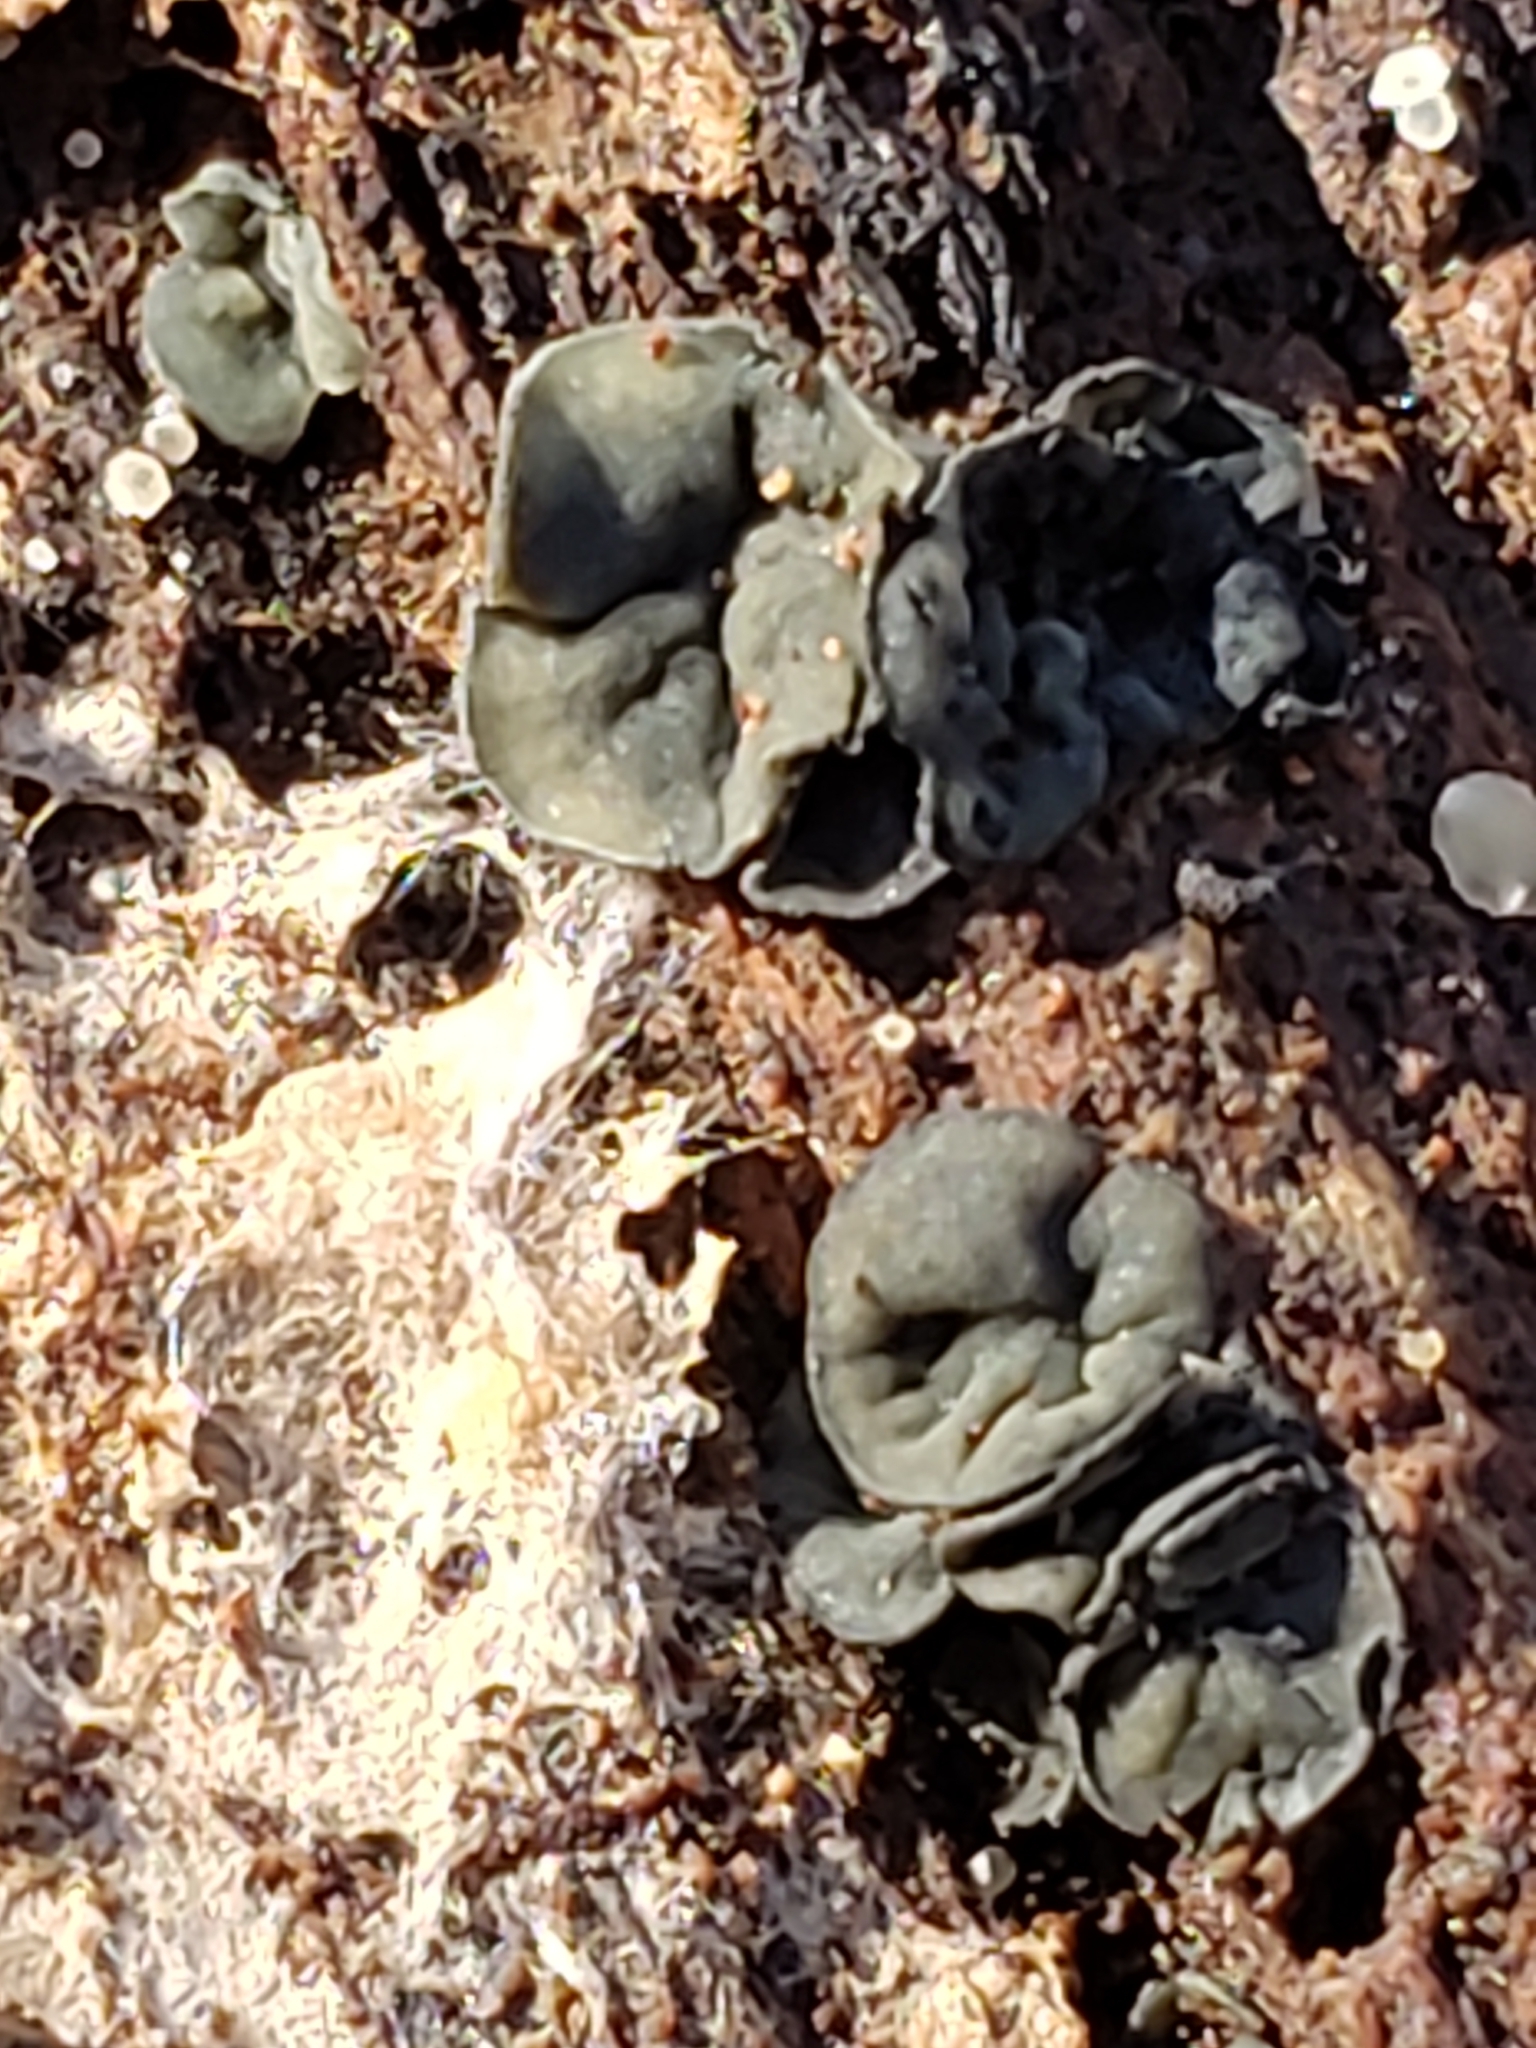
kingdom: Fungi
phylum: Ascomycota
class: Leotiomycetes
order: Helotiales
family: Chlorospleniaceae
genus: Chlorosplenium
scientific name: Chlorosplenium chlora
